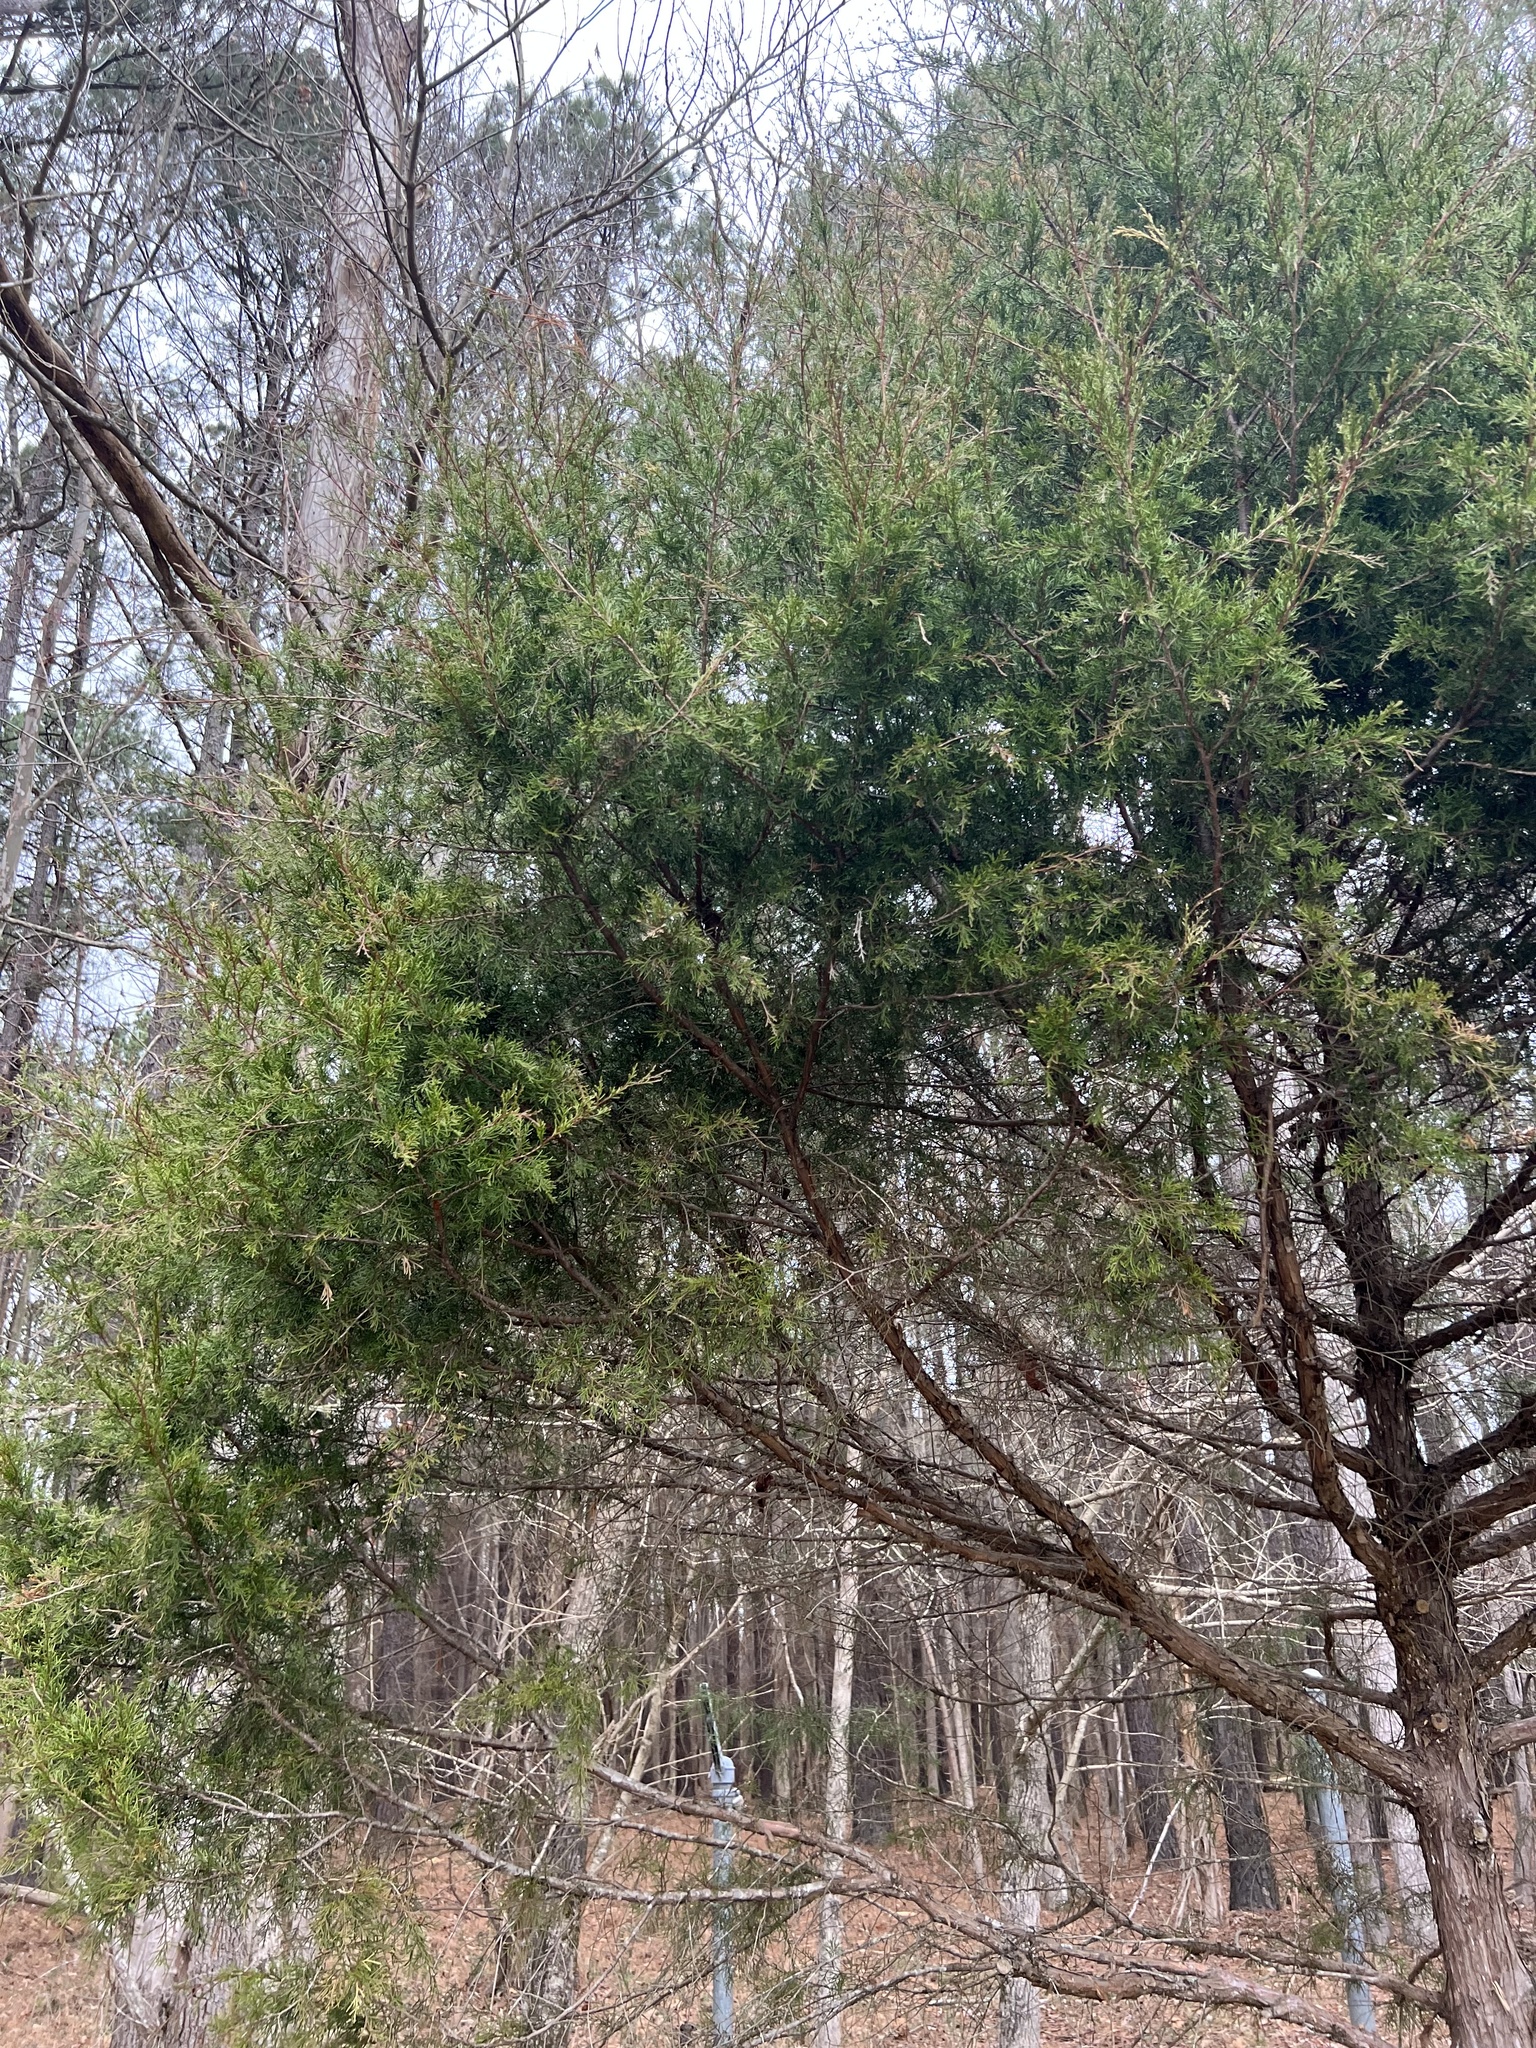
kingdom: Plantae
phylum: Tracheophyta
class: Pinopsida
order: Pinales
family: Cupressaceae
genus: Juniperus
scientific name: Juniperus virginiana
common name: Red juniper
